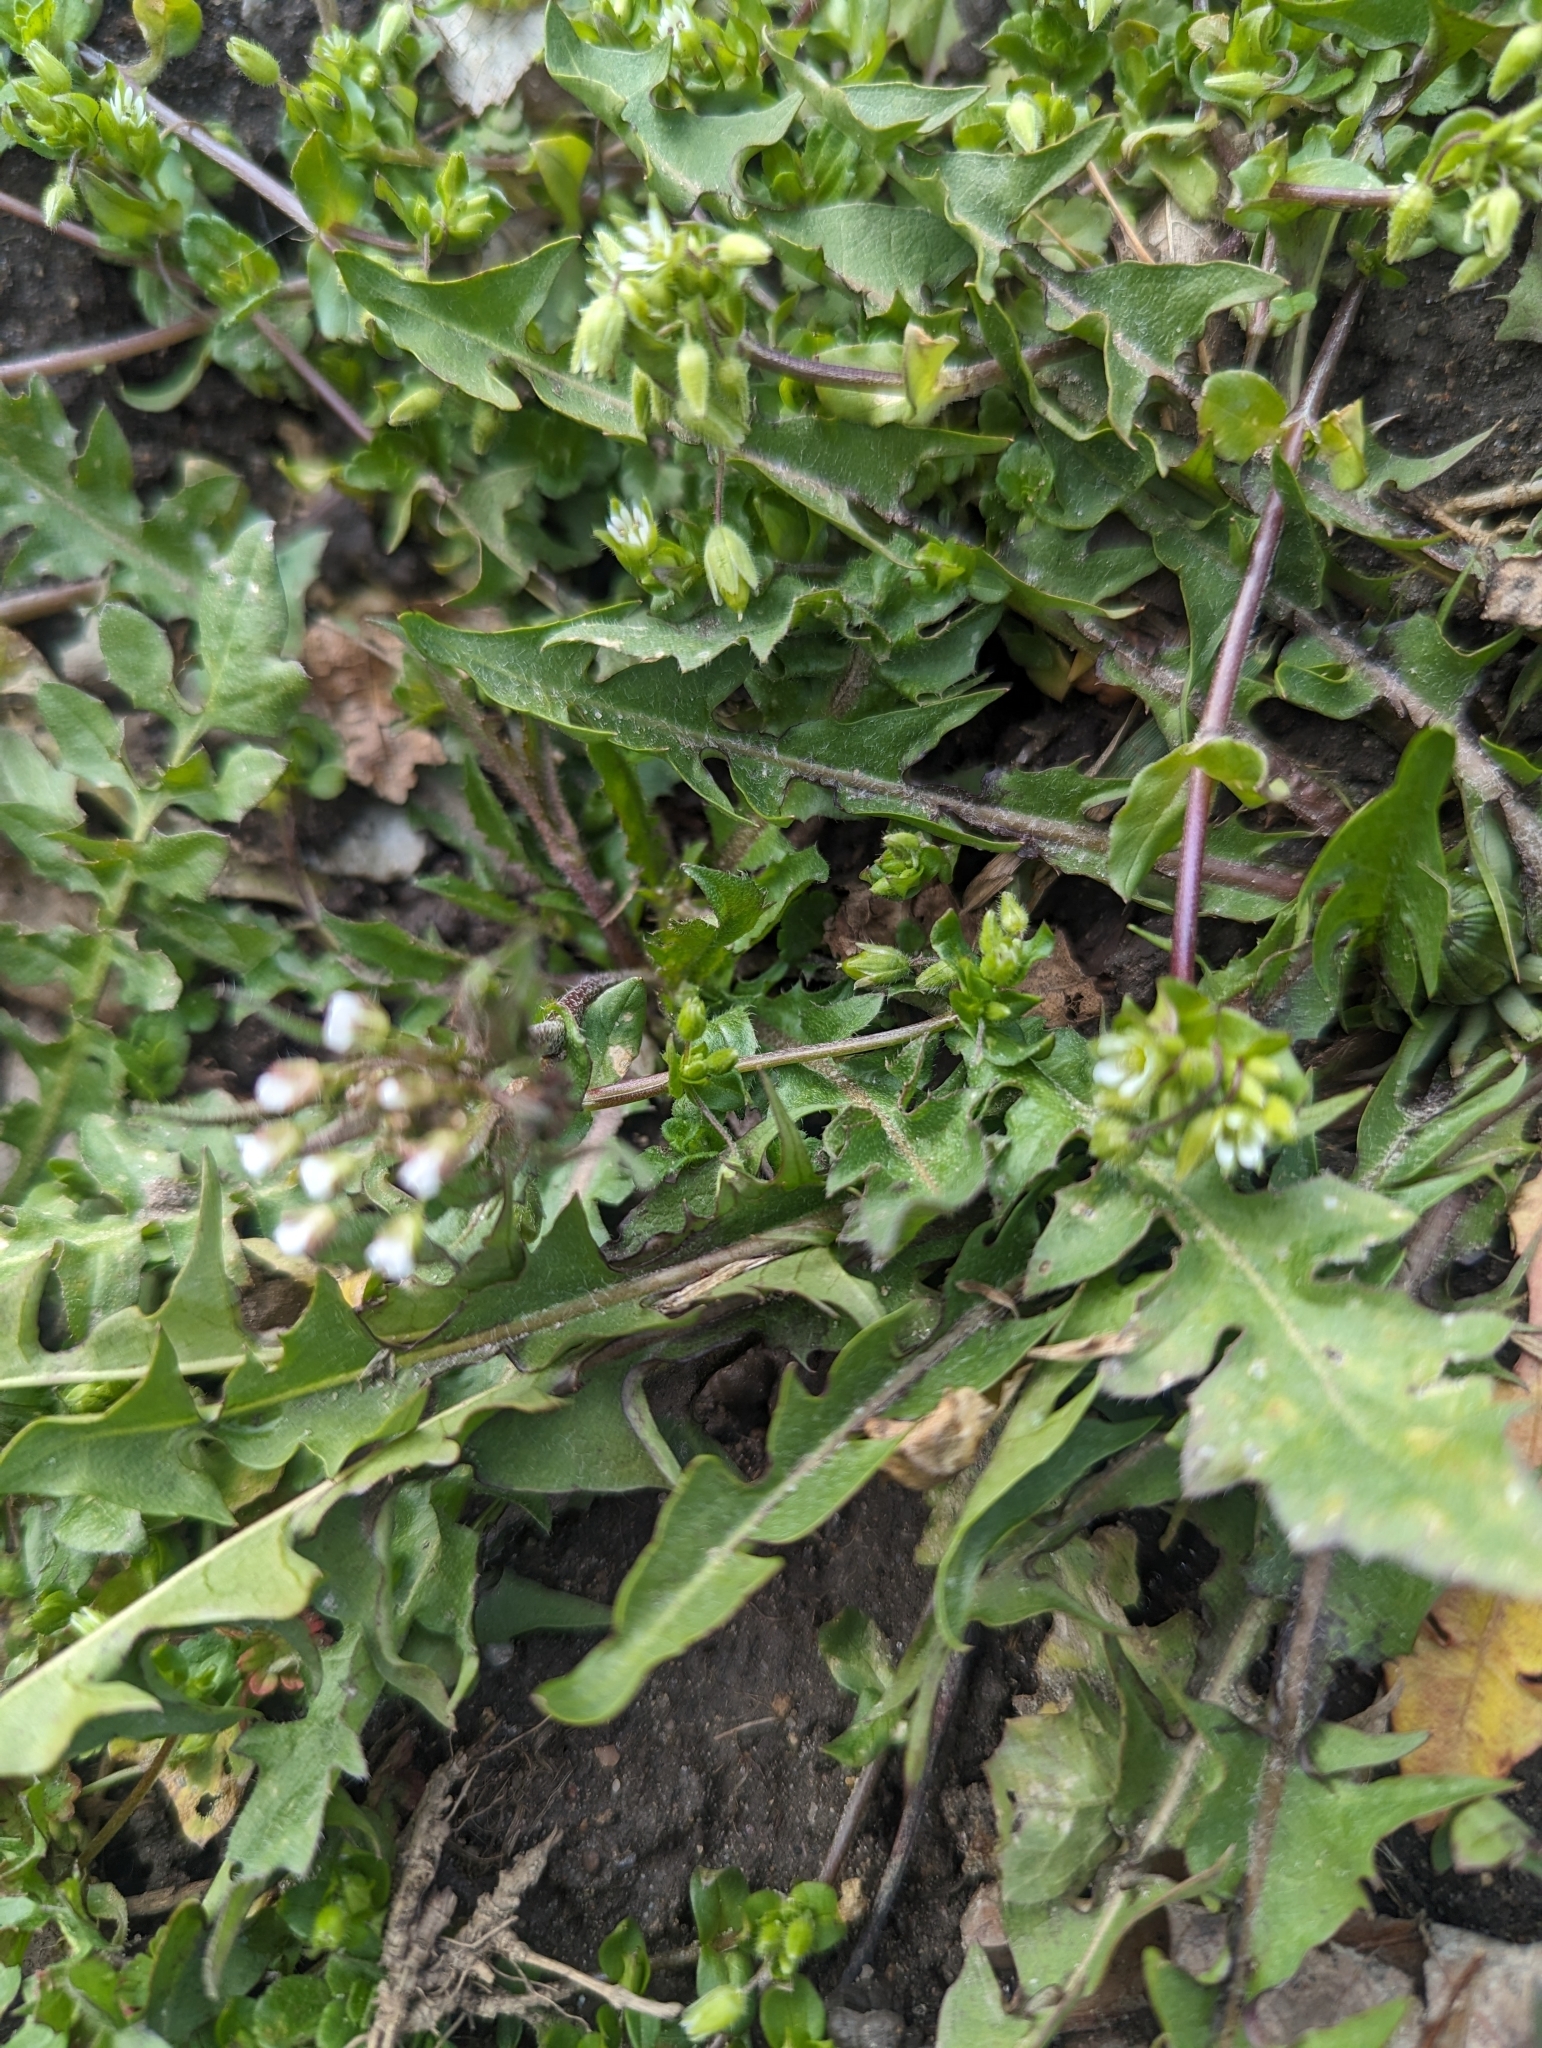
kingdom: Plantae
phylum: Tracheophyta
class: Magnoliopsida
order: Brassicales
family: Brassicaceae
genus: Capsella
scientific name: Capsella bursa-pastoris
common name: Shepherd's purse
